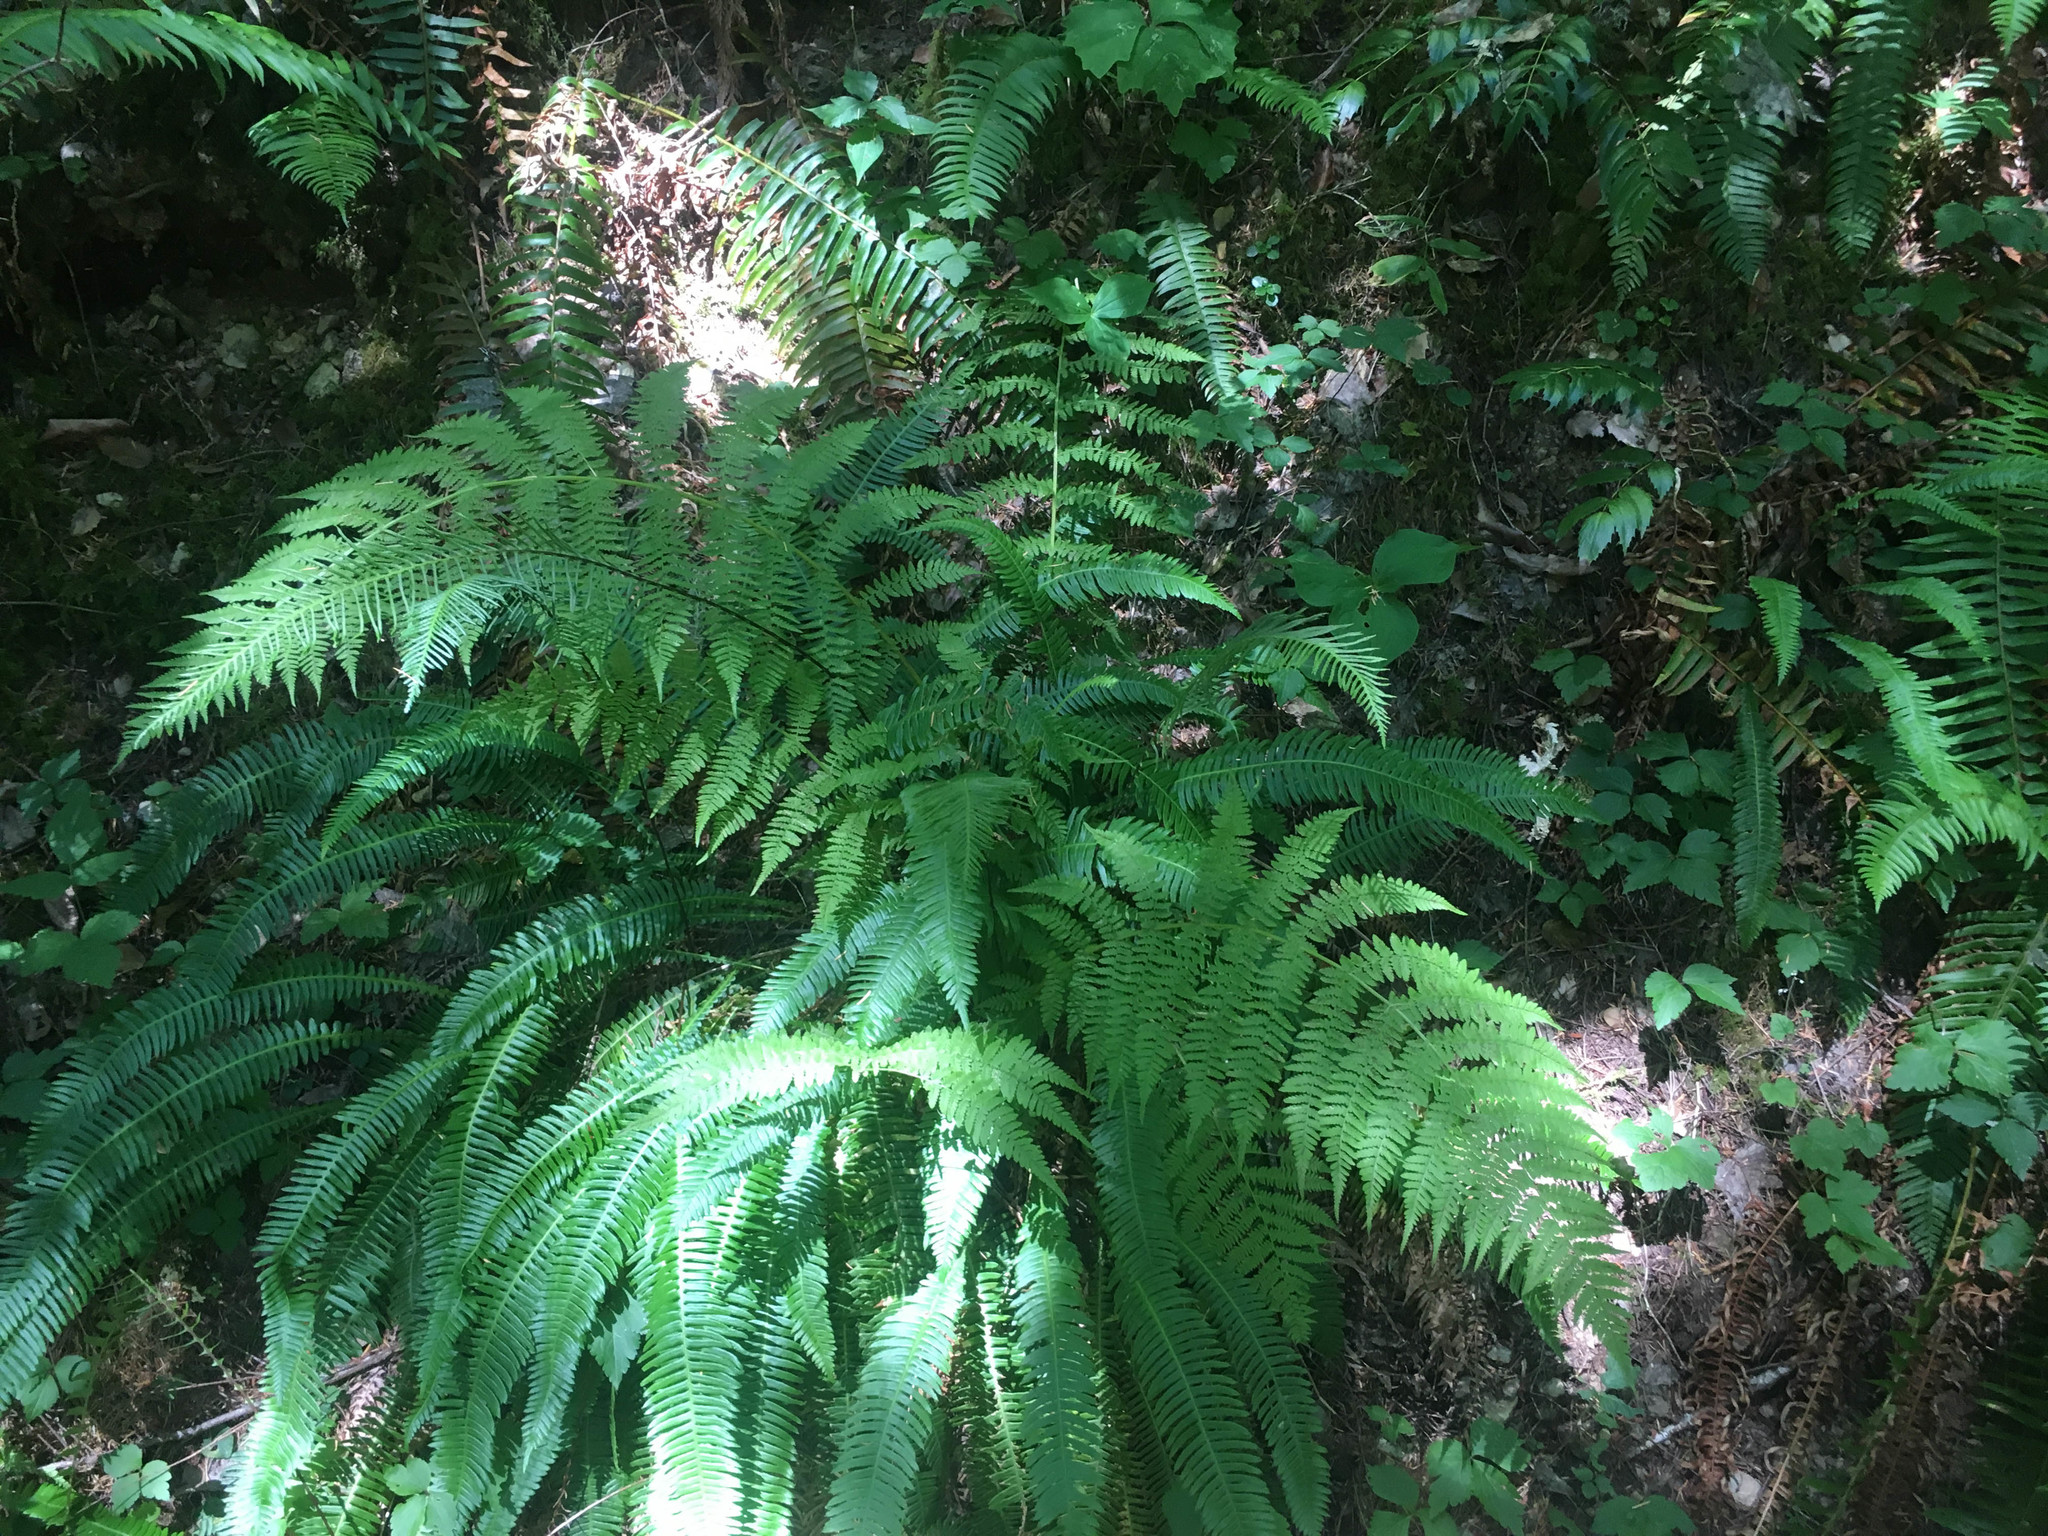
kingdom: Plantae
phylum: Tracheophyta
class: Polypodiopsida
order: Polypodiales
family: Athyriaceae
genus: Athyrium
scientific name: Athyrium filix-femina
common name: Lady fern
